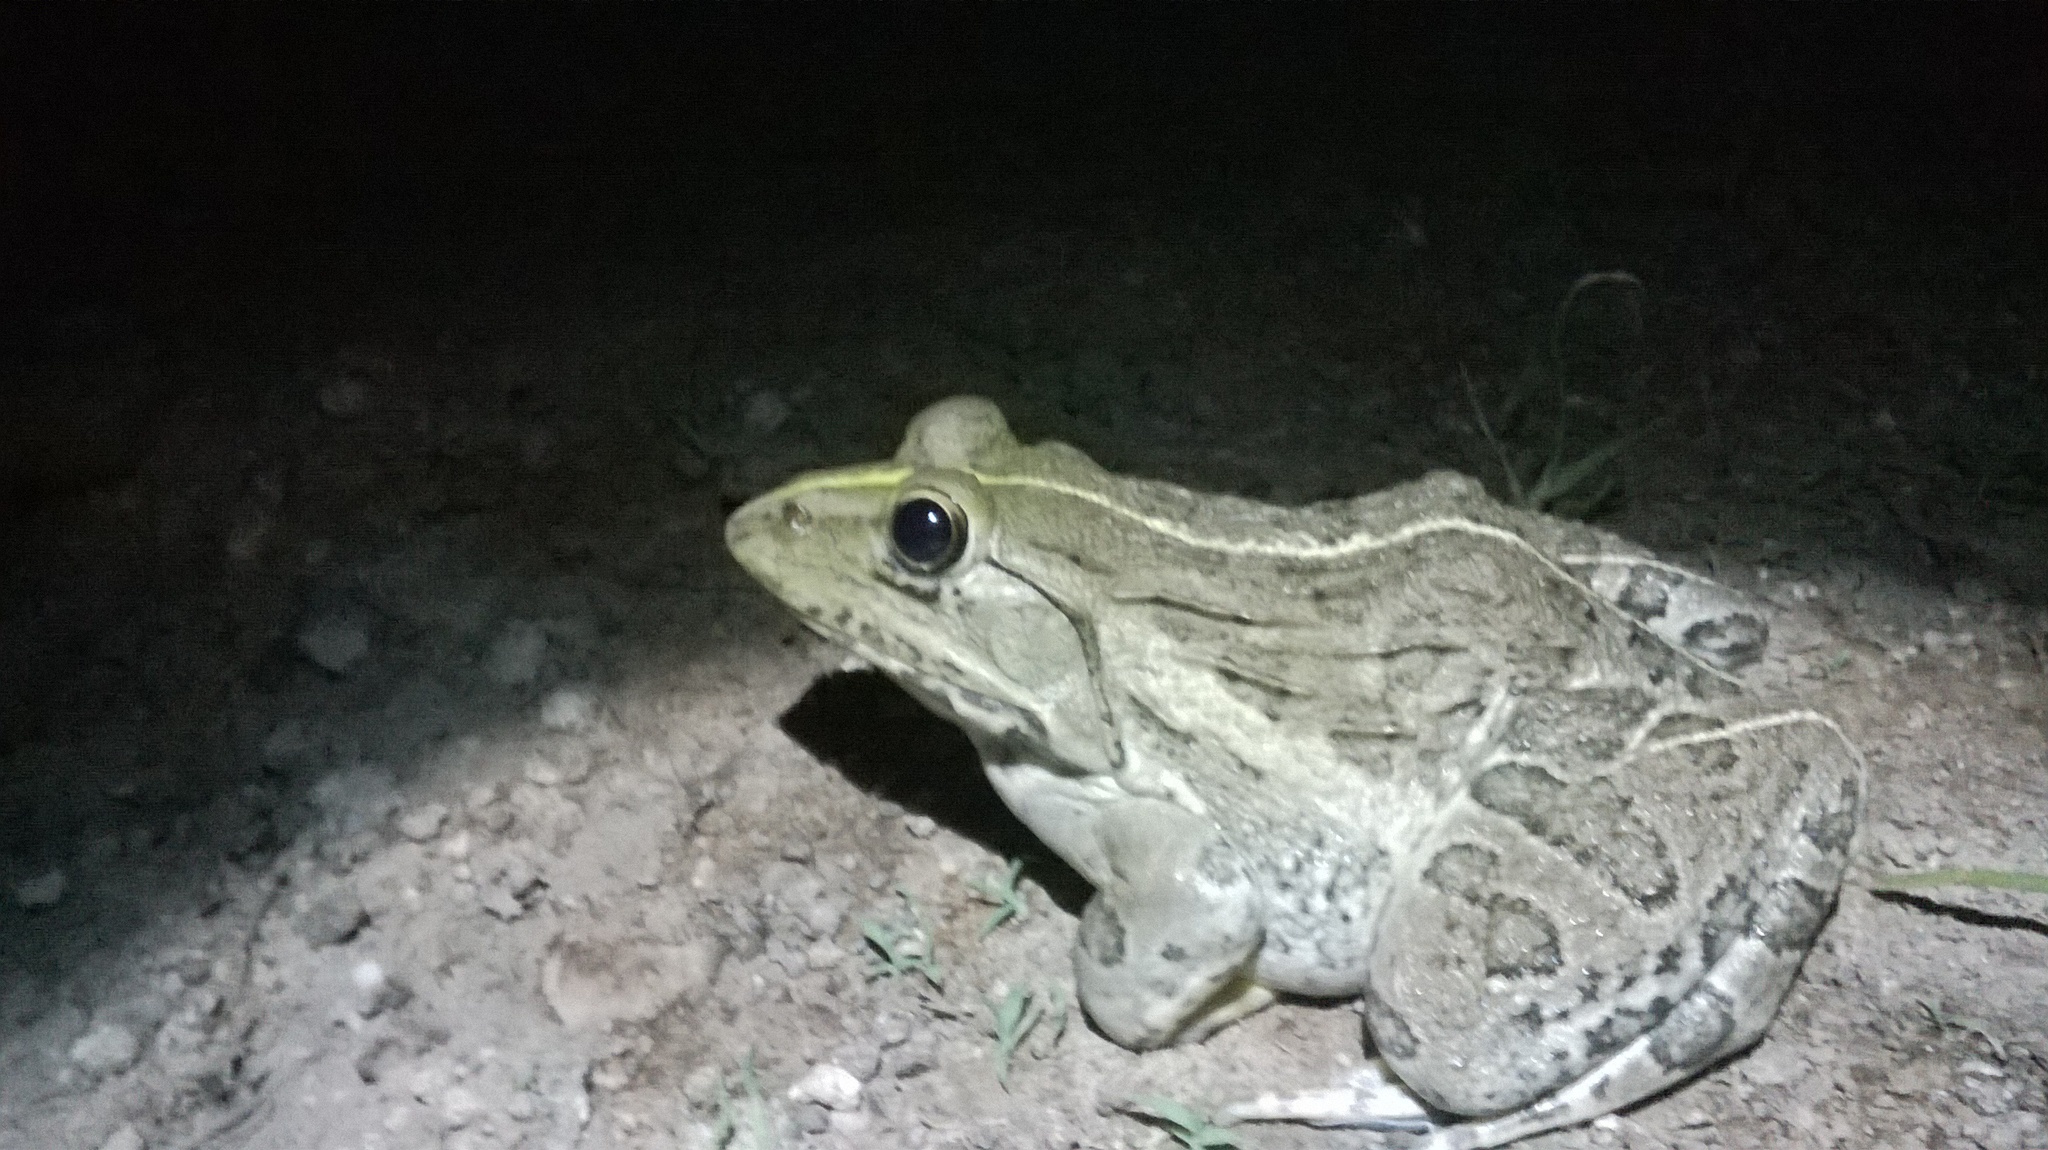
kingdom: Animalia
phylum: Chordata
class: Amphibia
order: Anura
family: Dicroglossidae
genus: Hoplobatrachus
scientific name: Hoplobatrachus tigerinus
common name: Indian bullfrog
